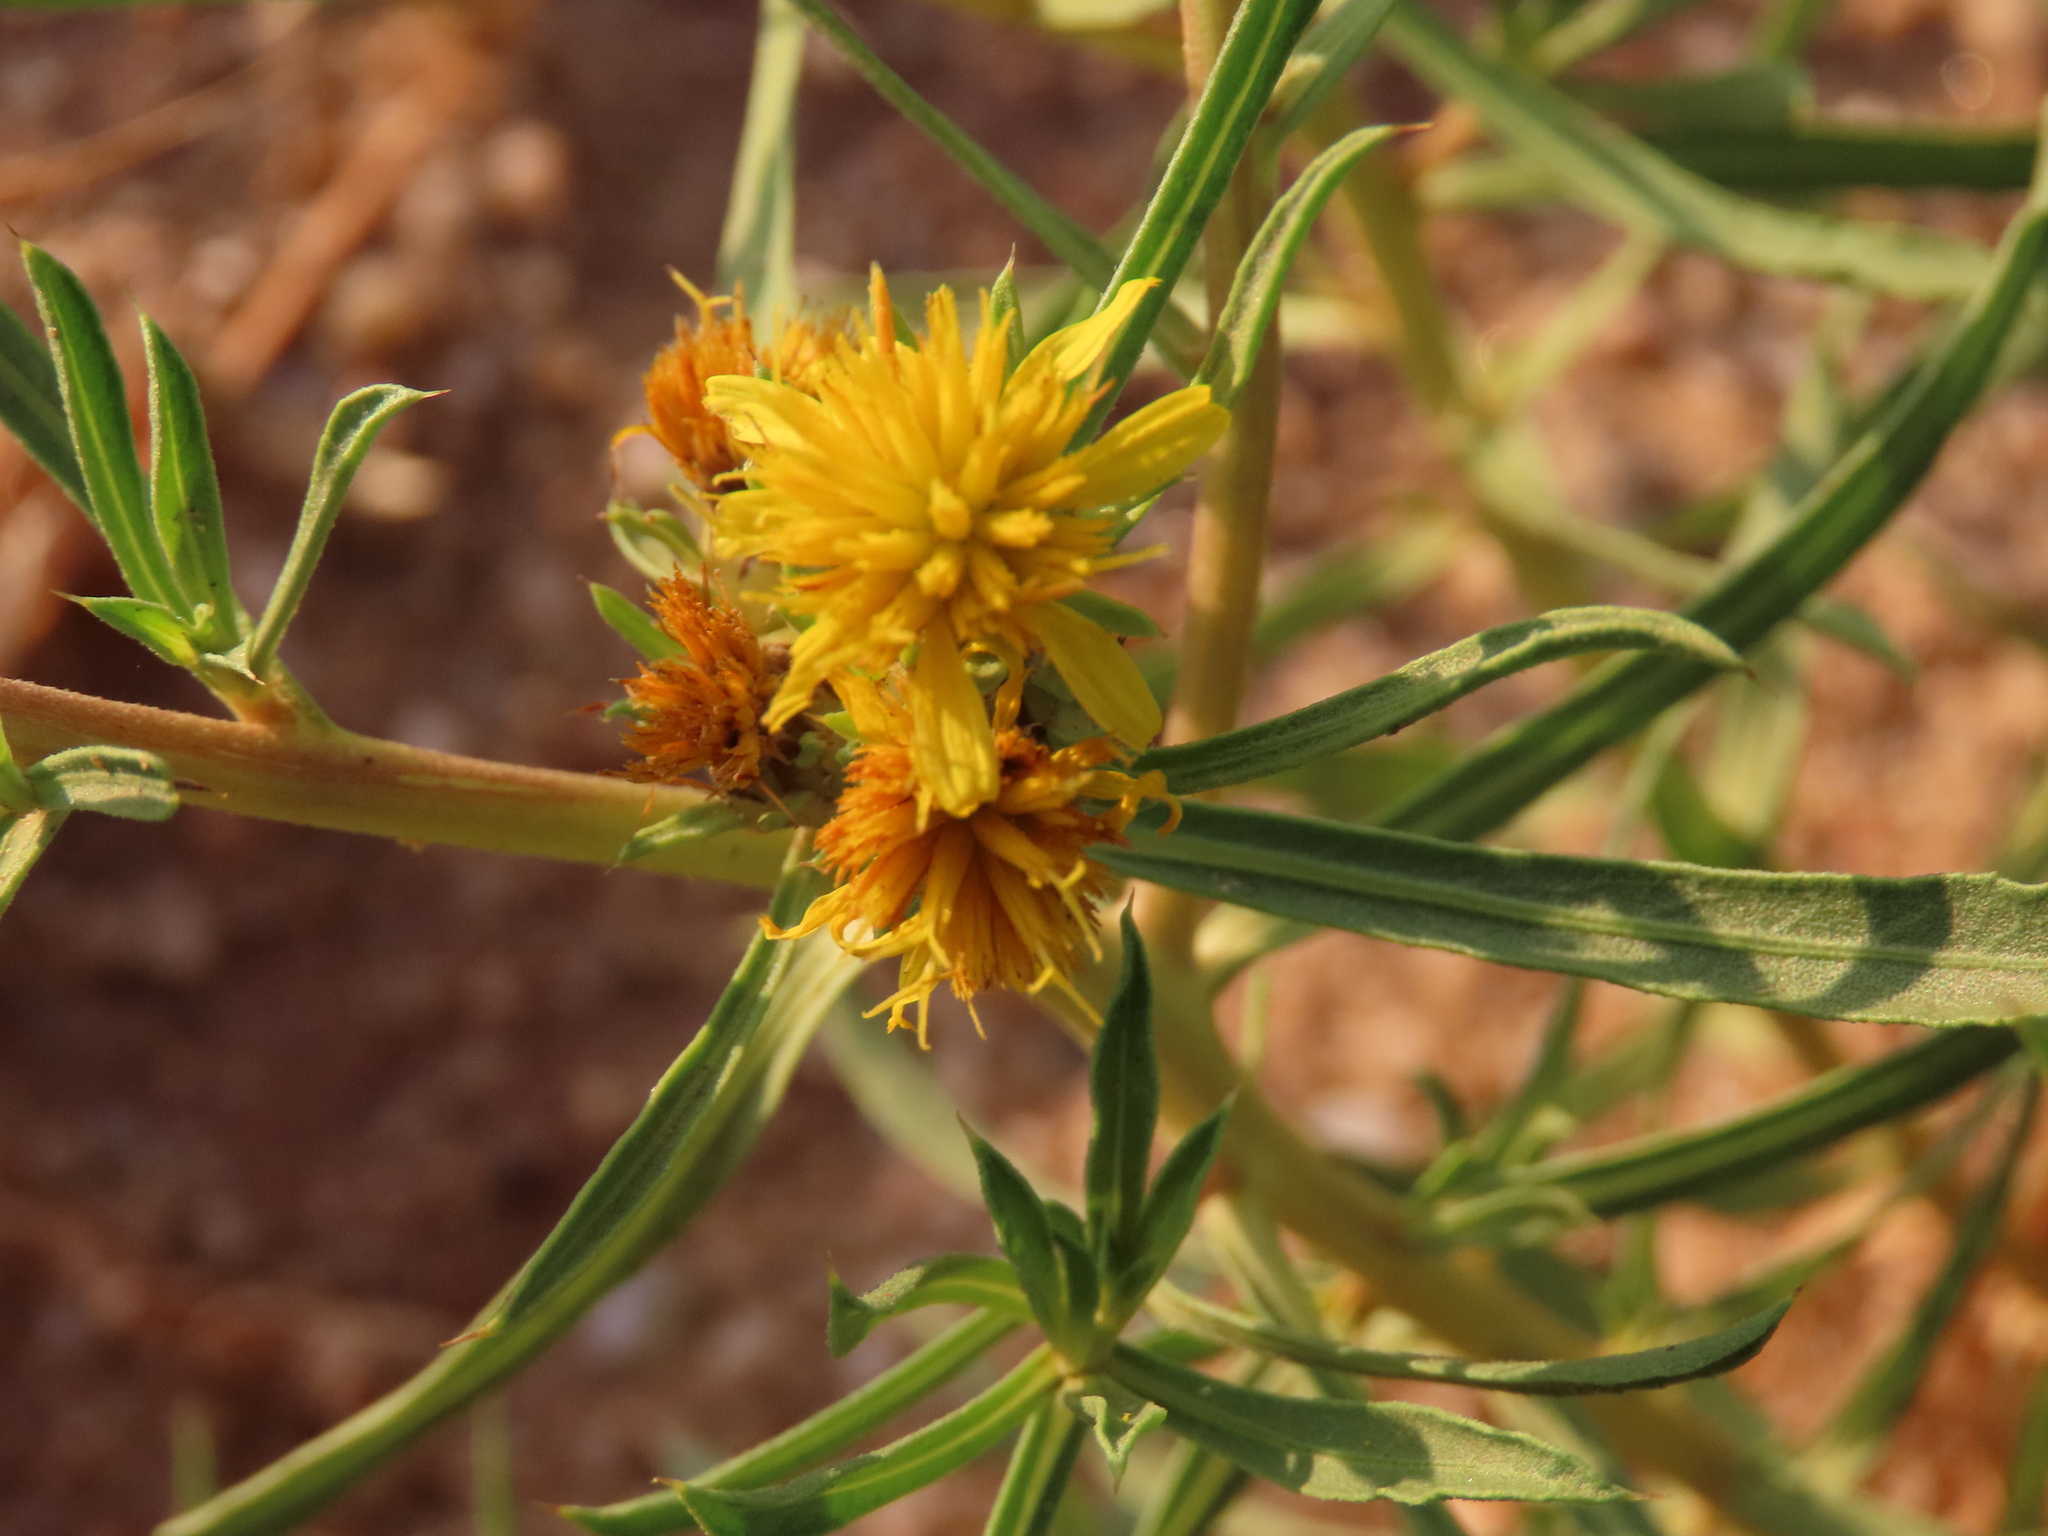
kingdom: Plantae
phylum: Tracheophyta
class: Magnoliopsida
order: Asterales
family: Asteraceae
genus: Geigeria
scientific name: Geigeria pectidea
